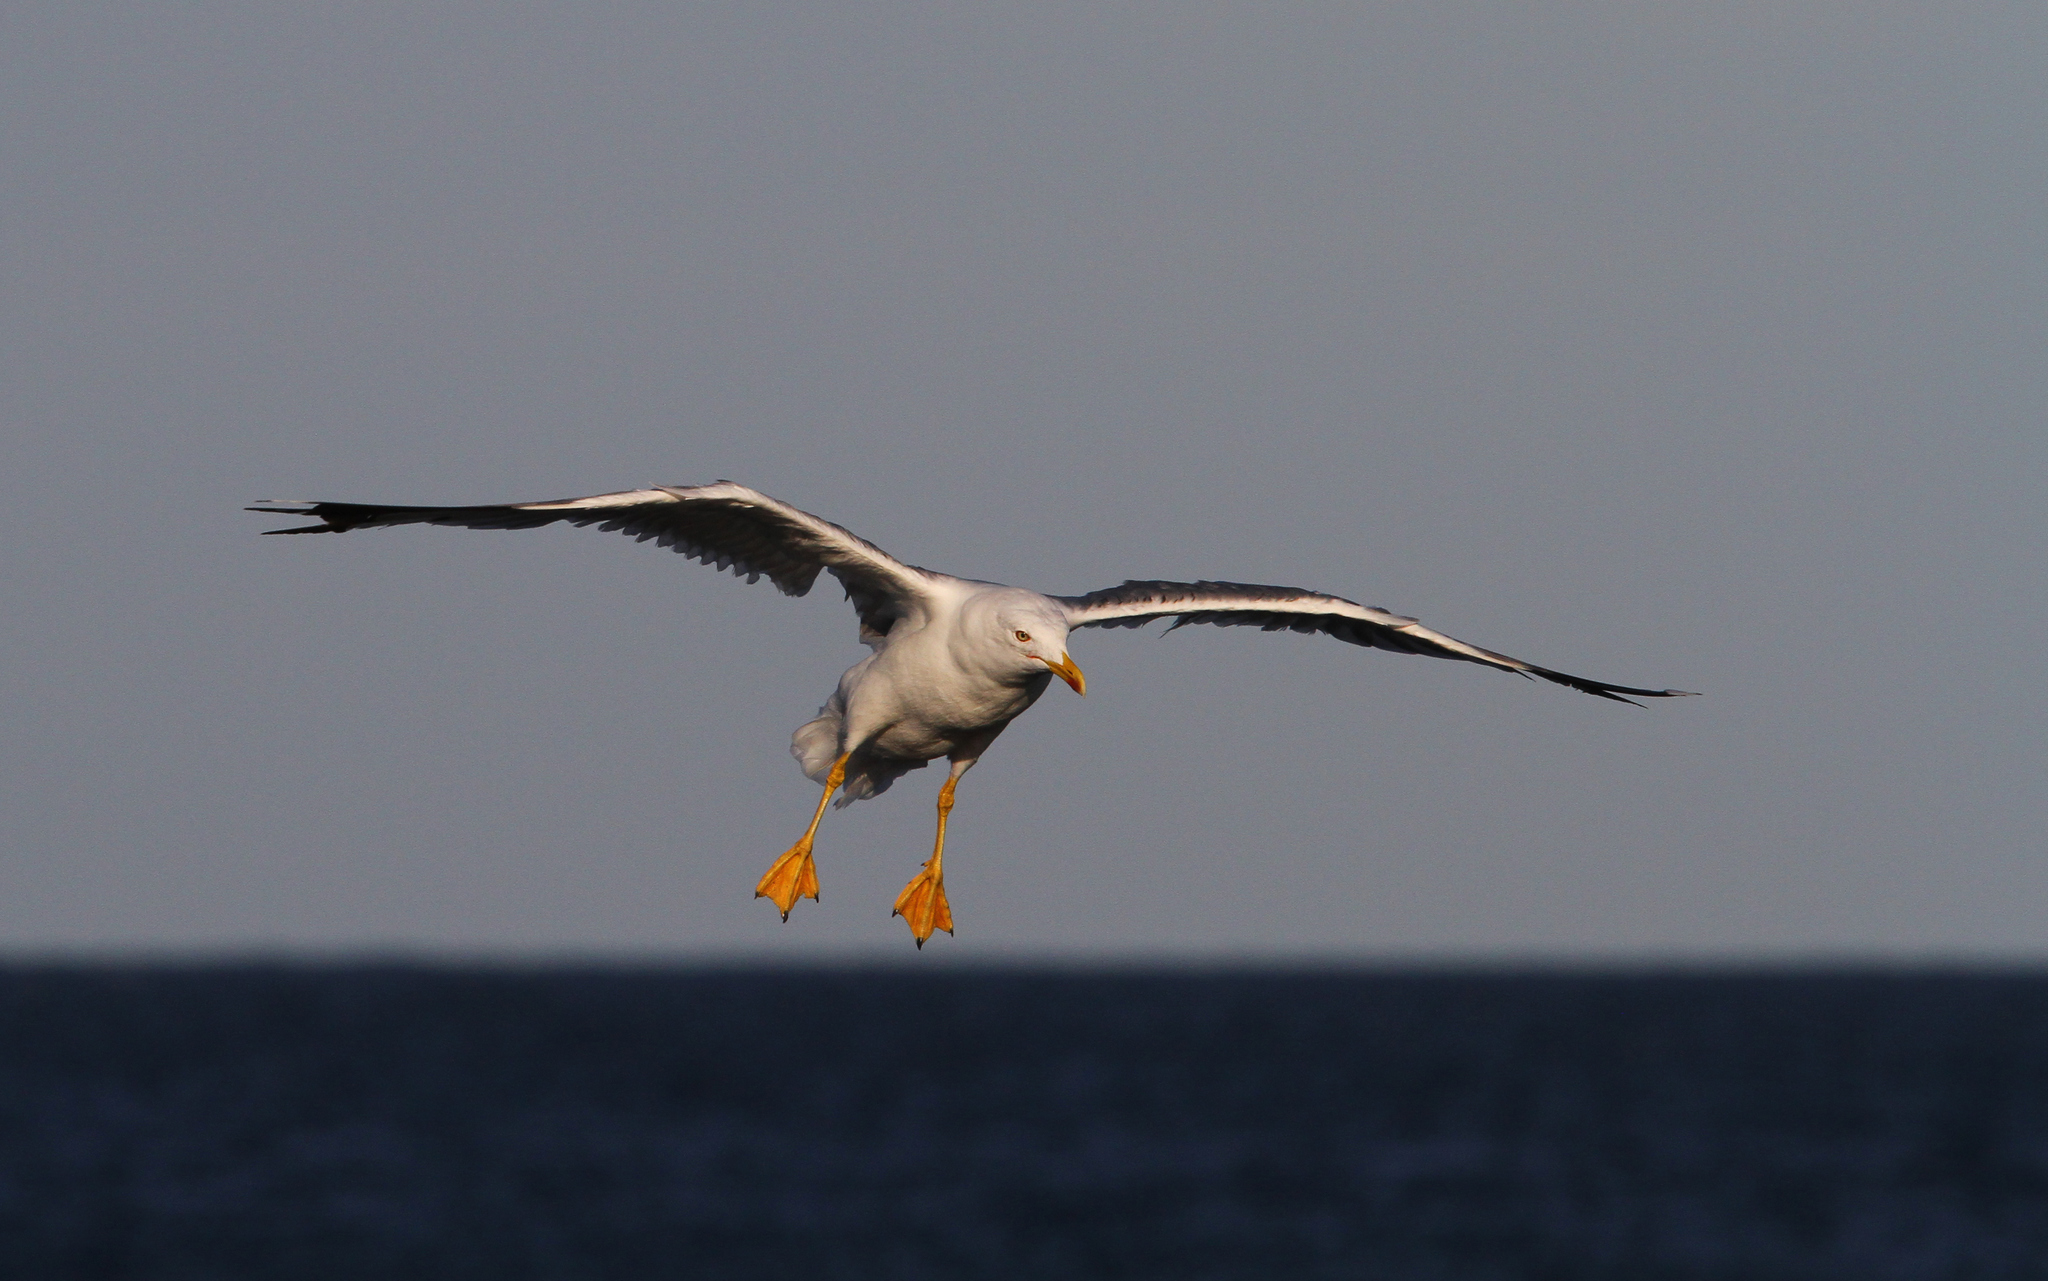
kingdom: Animalia
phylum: Chordata
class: Aves
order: Charadriiformes
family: Laridae
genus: Larus
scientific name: Larus michahellis
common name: Yellow-legged gull
